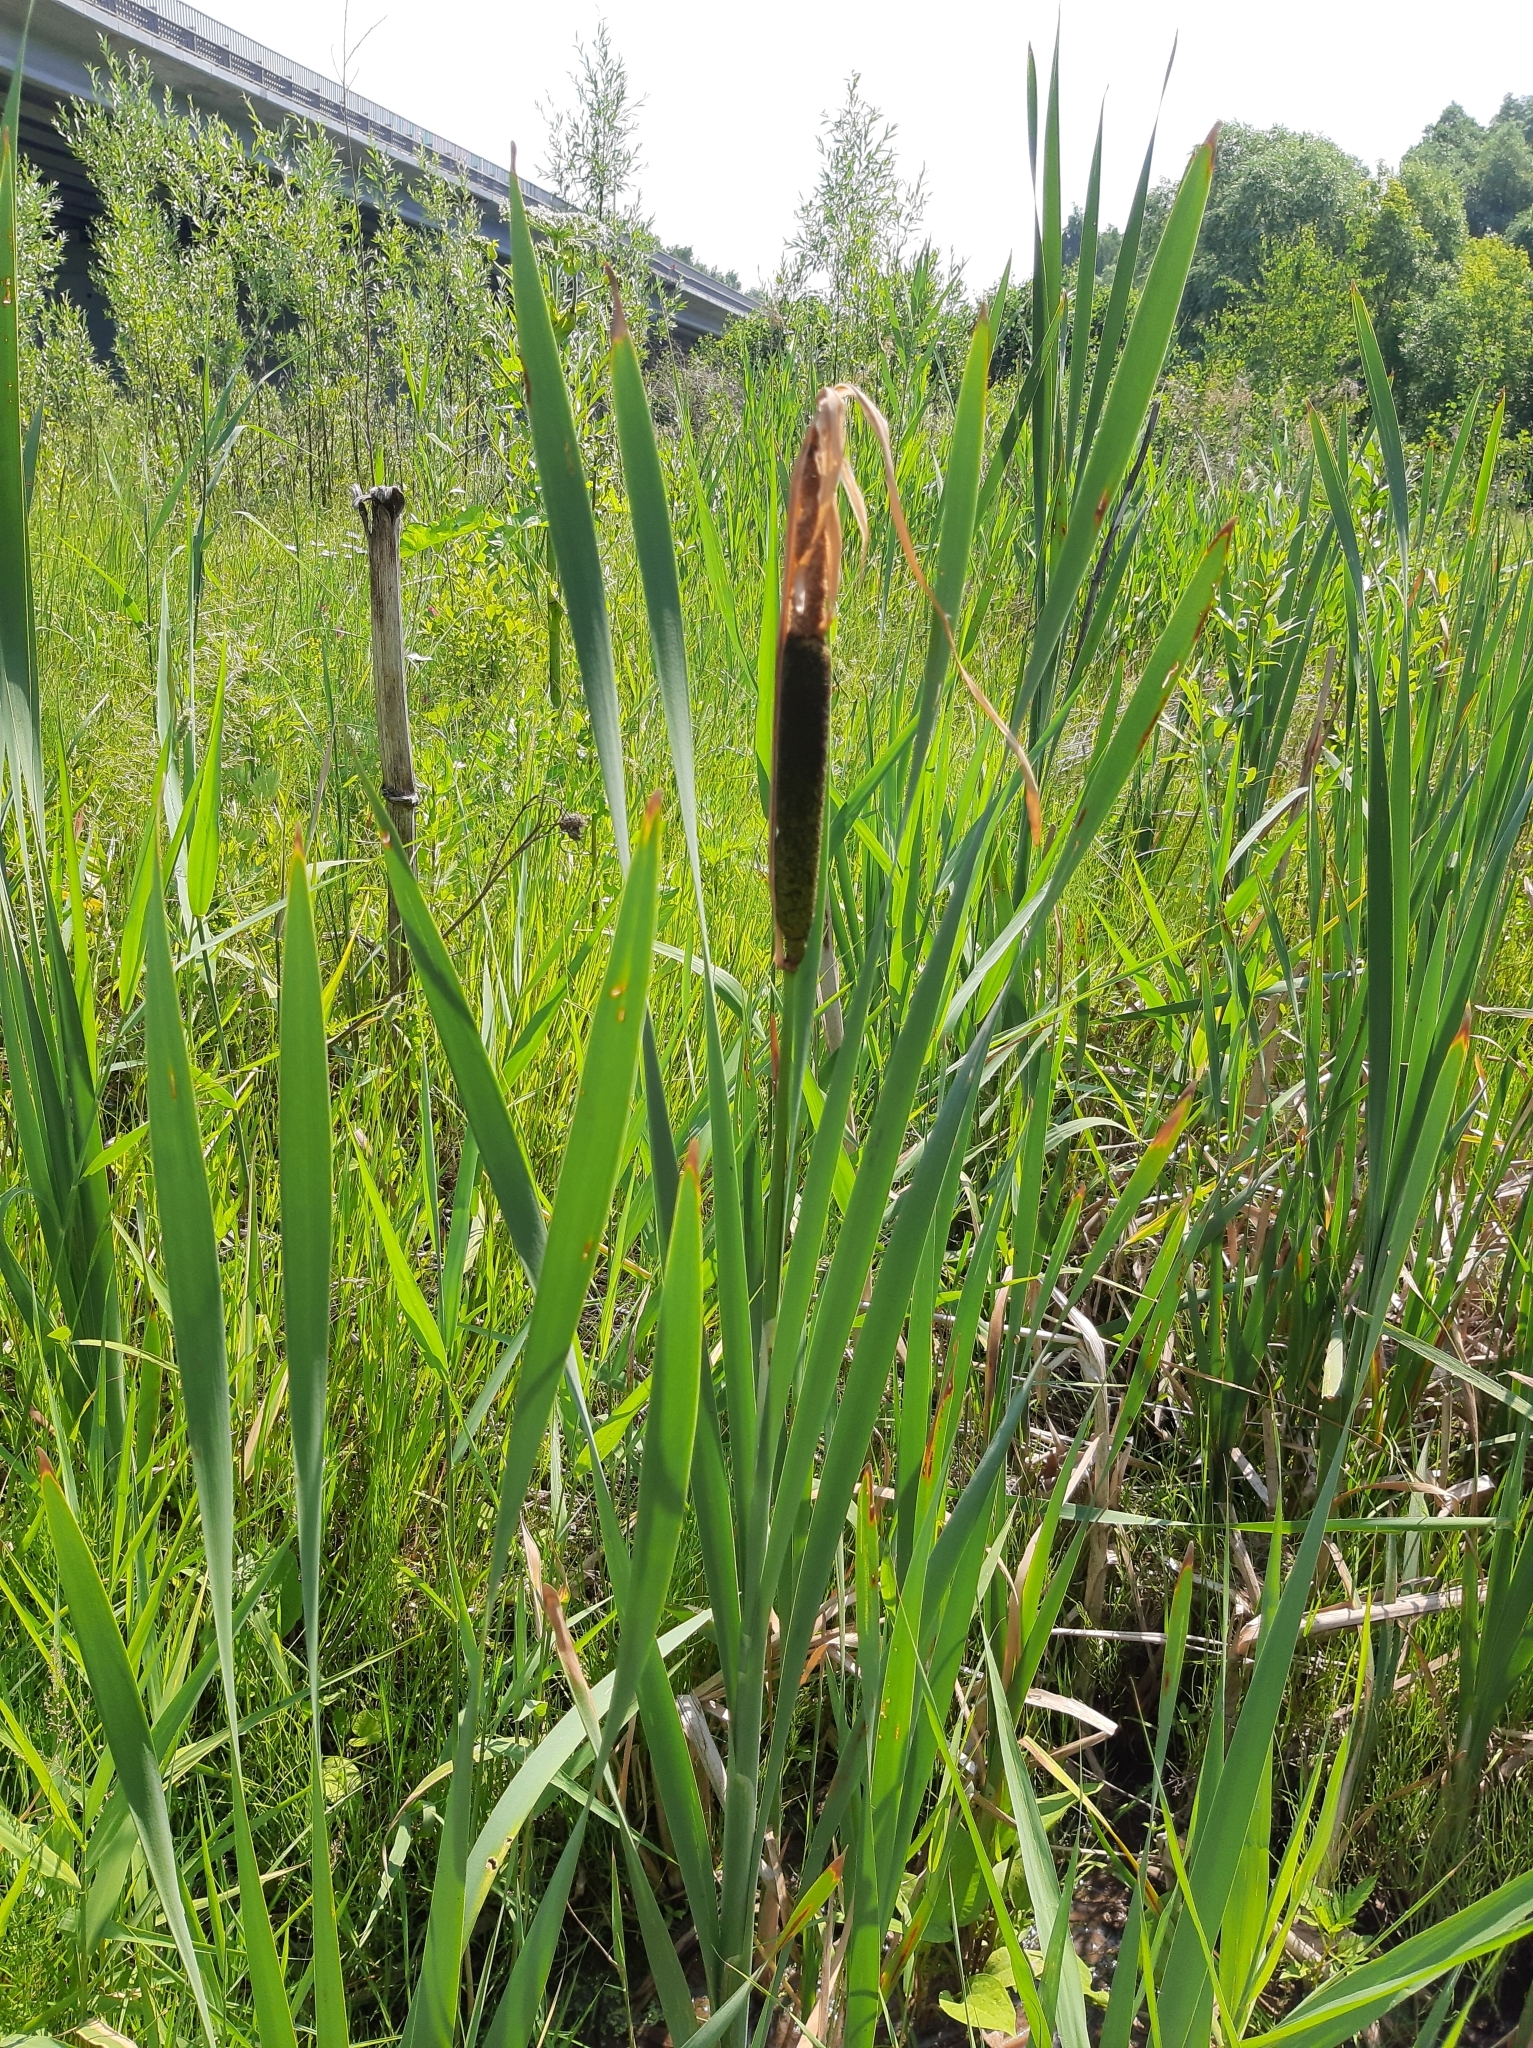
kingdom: Plantae
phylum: Tracheophyta
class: Liliopsida
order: Poales
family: Typhaceae
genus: Typha
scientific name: Typha latifolia
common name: Broadleaf cattail
